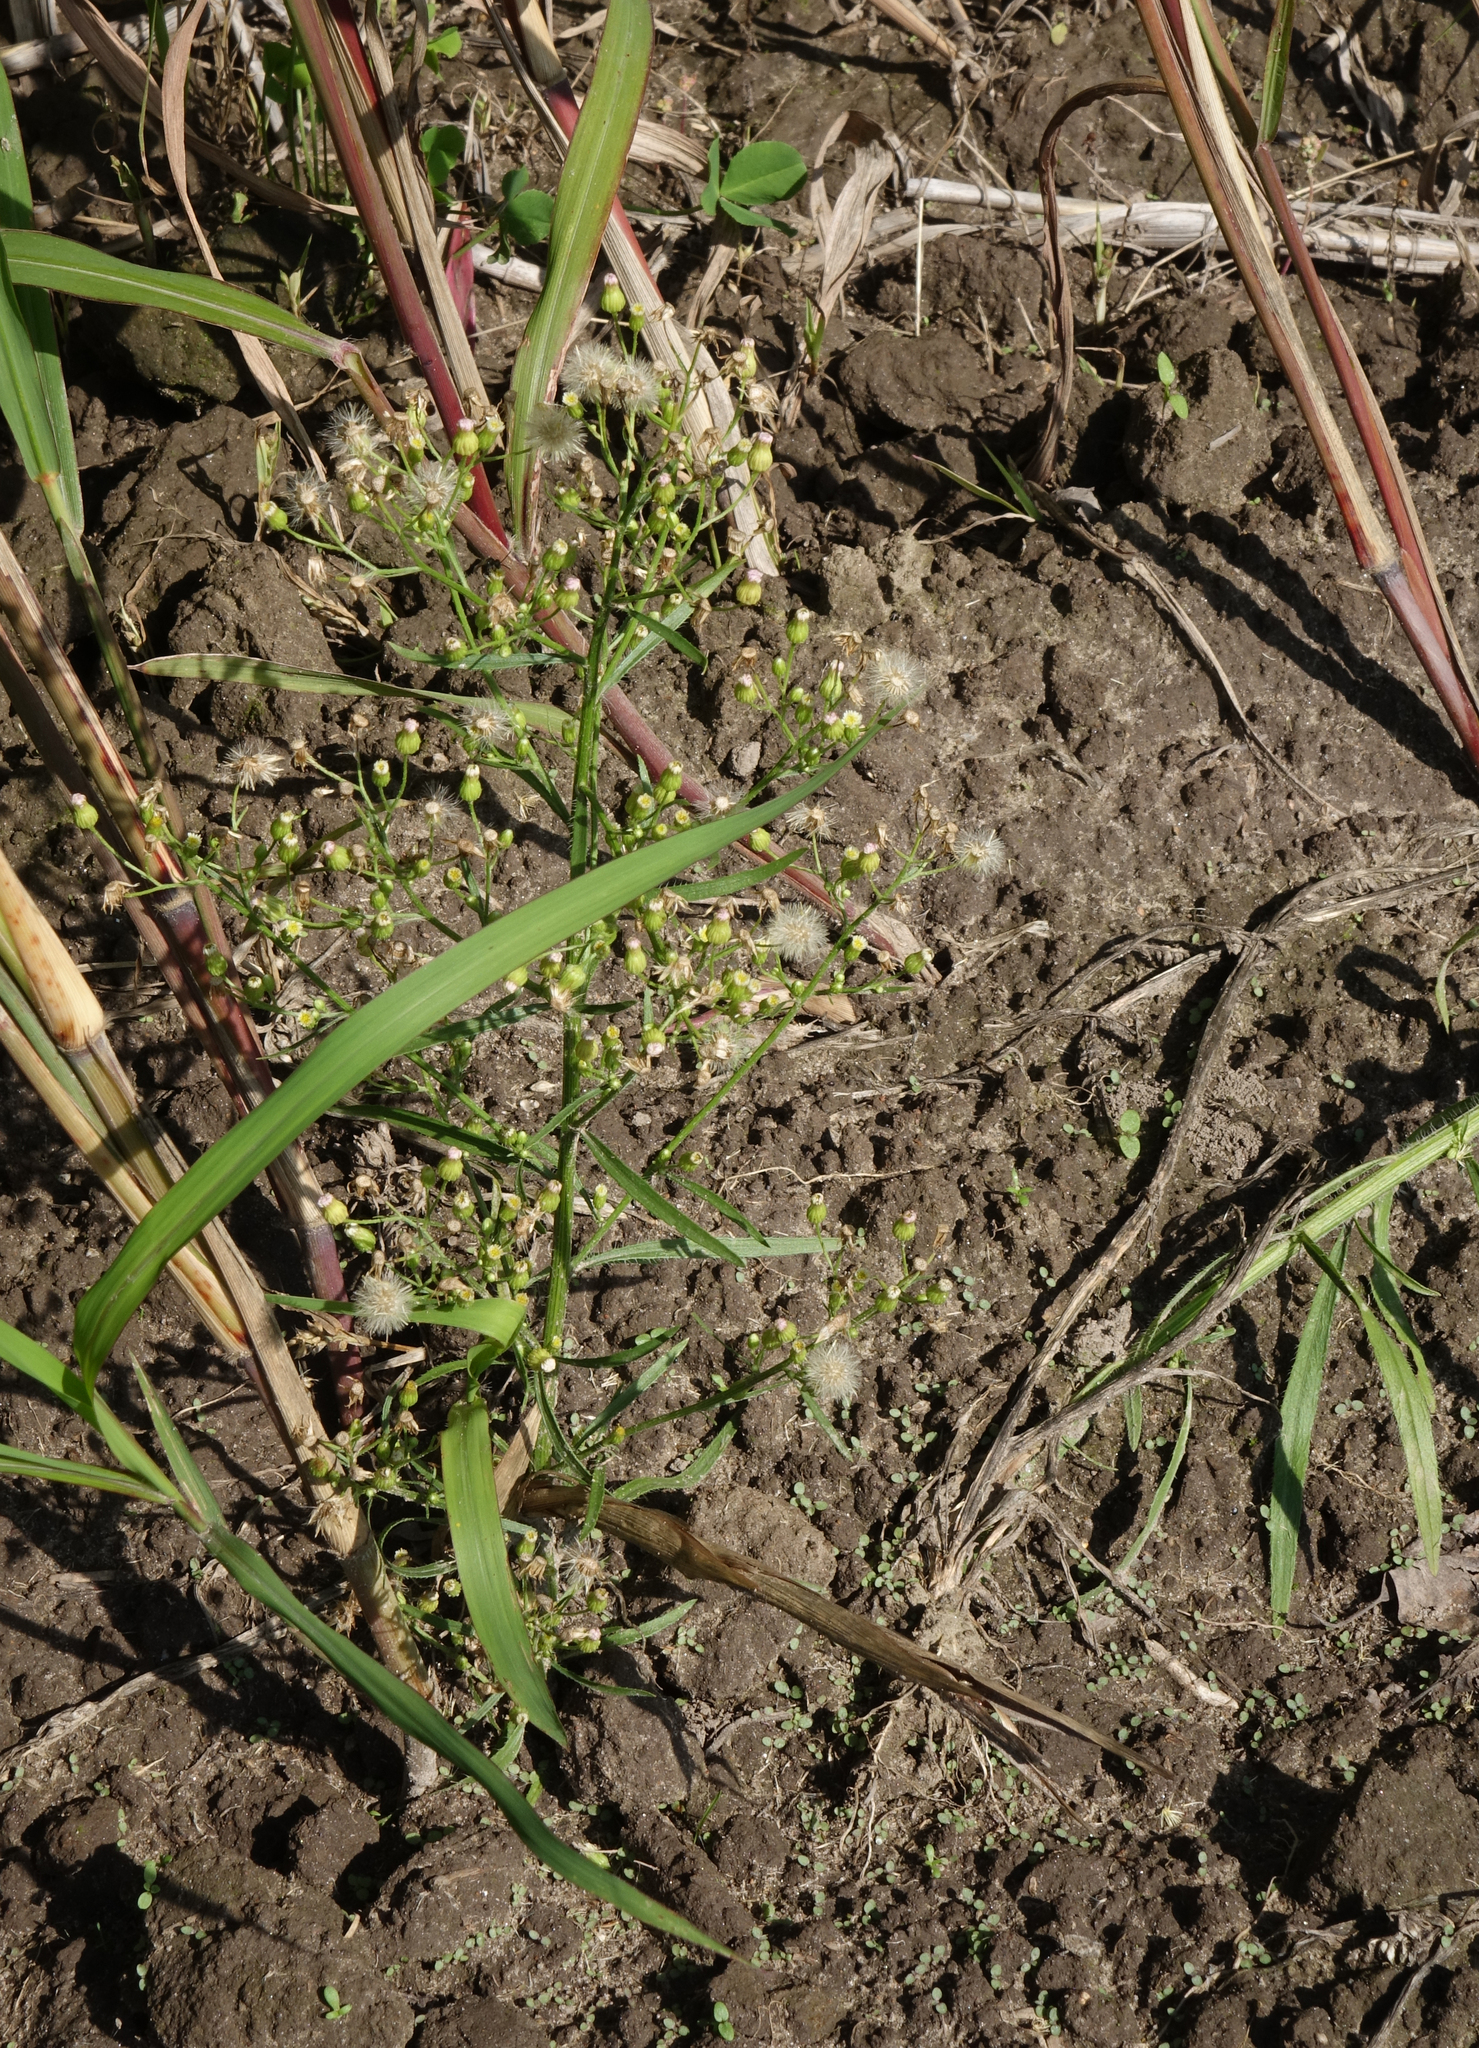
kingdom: Plantae
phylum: Tracheophyta
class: Magnoliopsida
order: Asterales
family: Asteraceae
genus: Erigeron
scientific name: Erigeron canadensis
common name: Canadian fleabane
